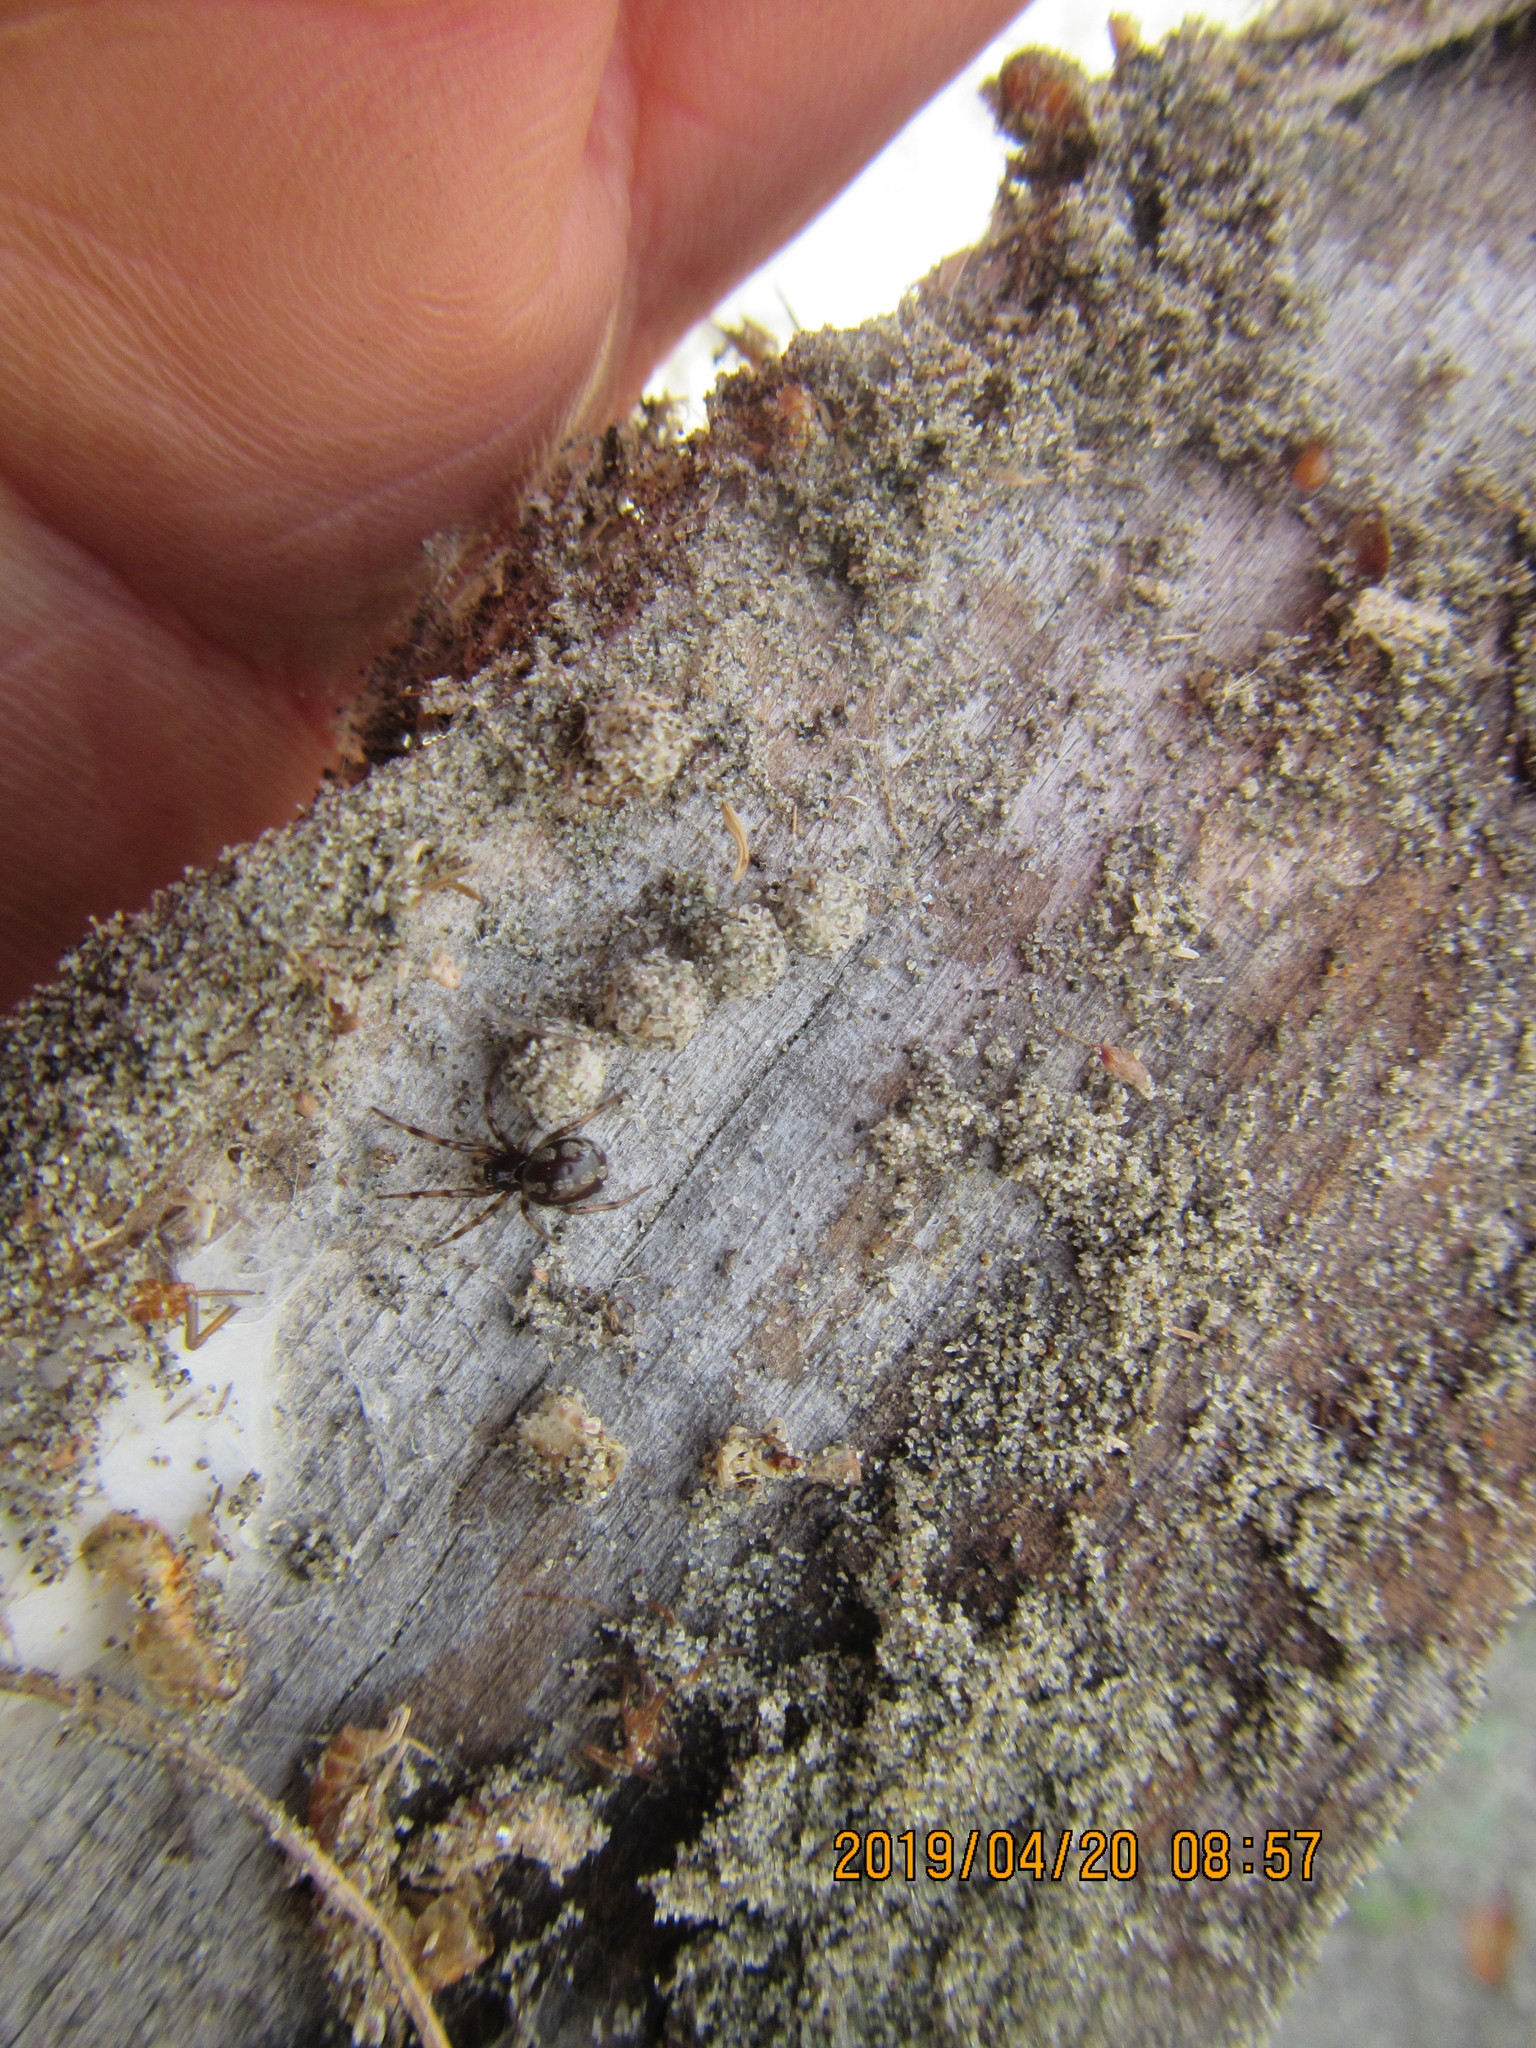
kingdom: Animalia
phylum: Arthropoda
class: Arachnida
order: Araneae
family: Theridiidae
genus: Steatoda
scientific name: Steatoda lepida
